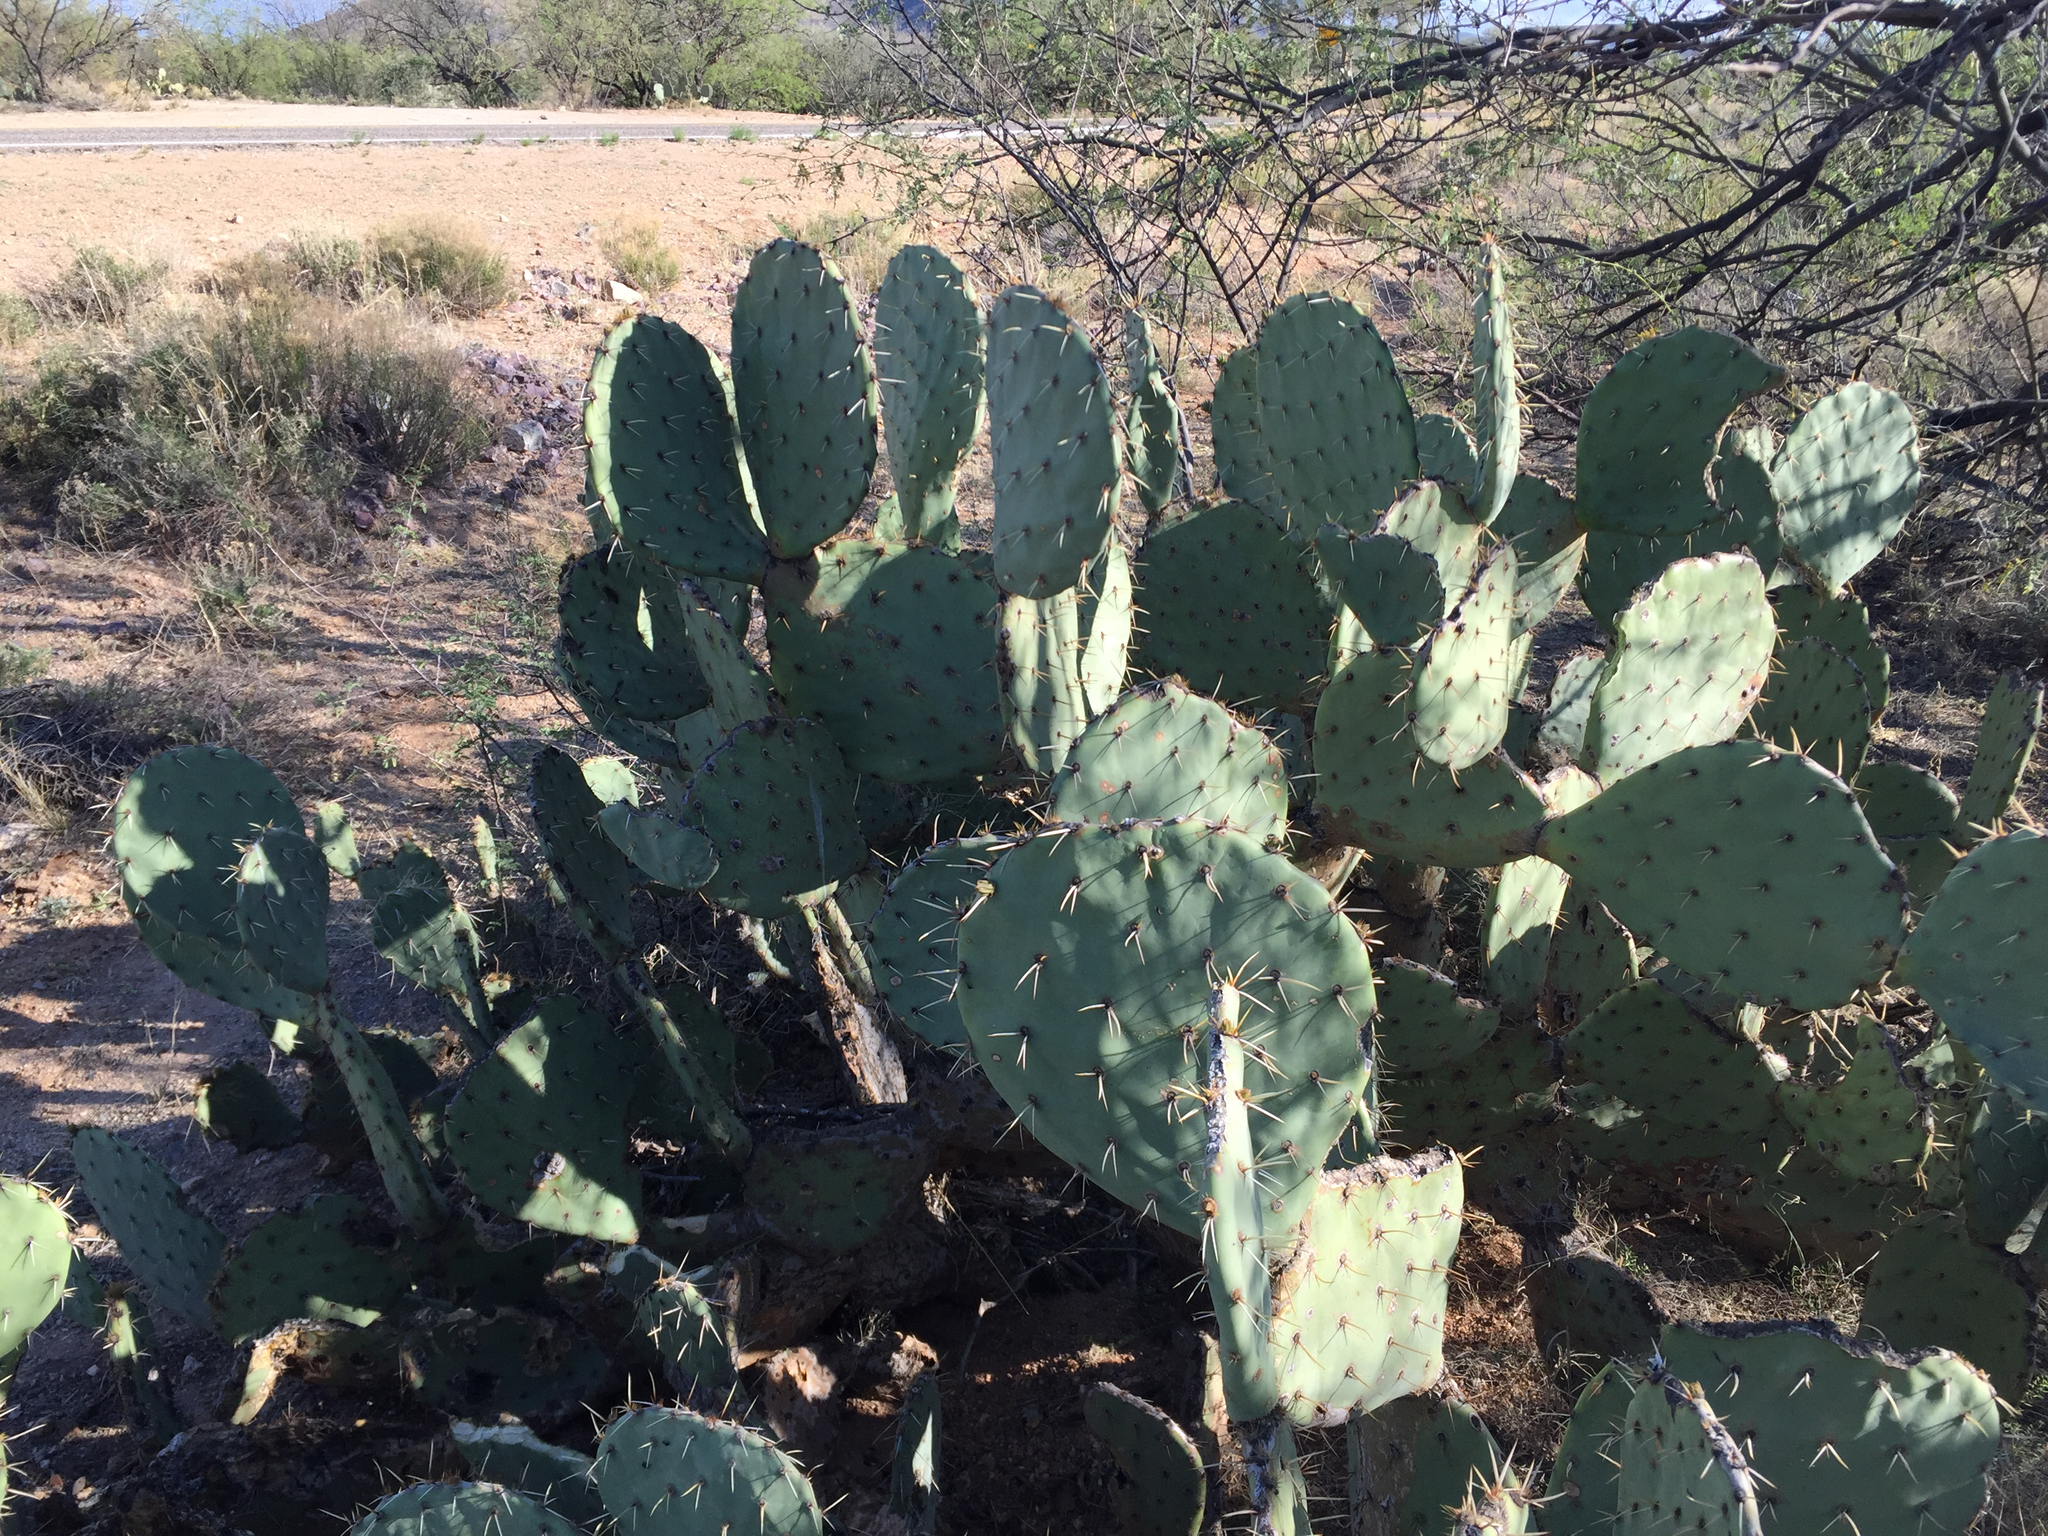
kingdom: Plantae
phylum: Tracheophyta
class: Magnoliopsida
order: Caryophyllales
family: Cactaceae
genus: Opuntia
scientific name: Opuntia engelmannii
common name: Cactus-apple
